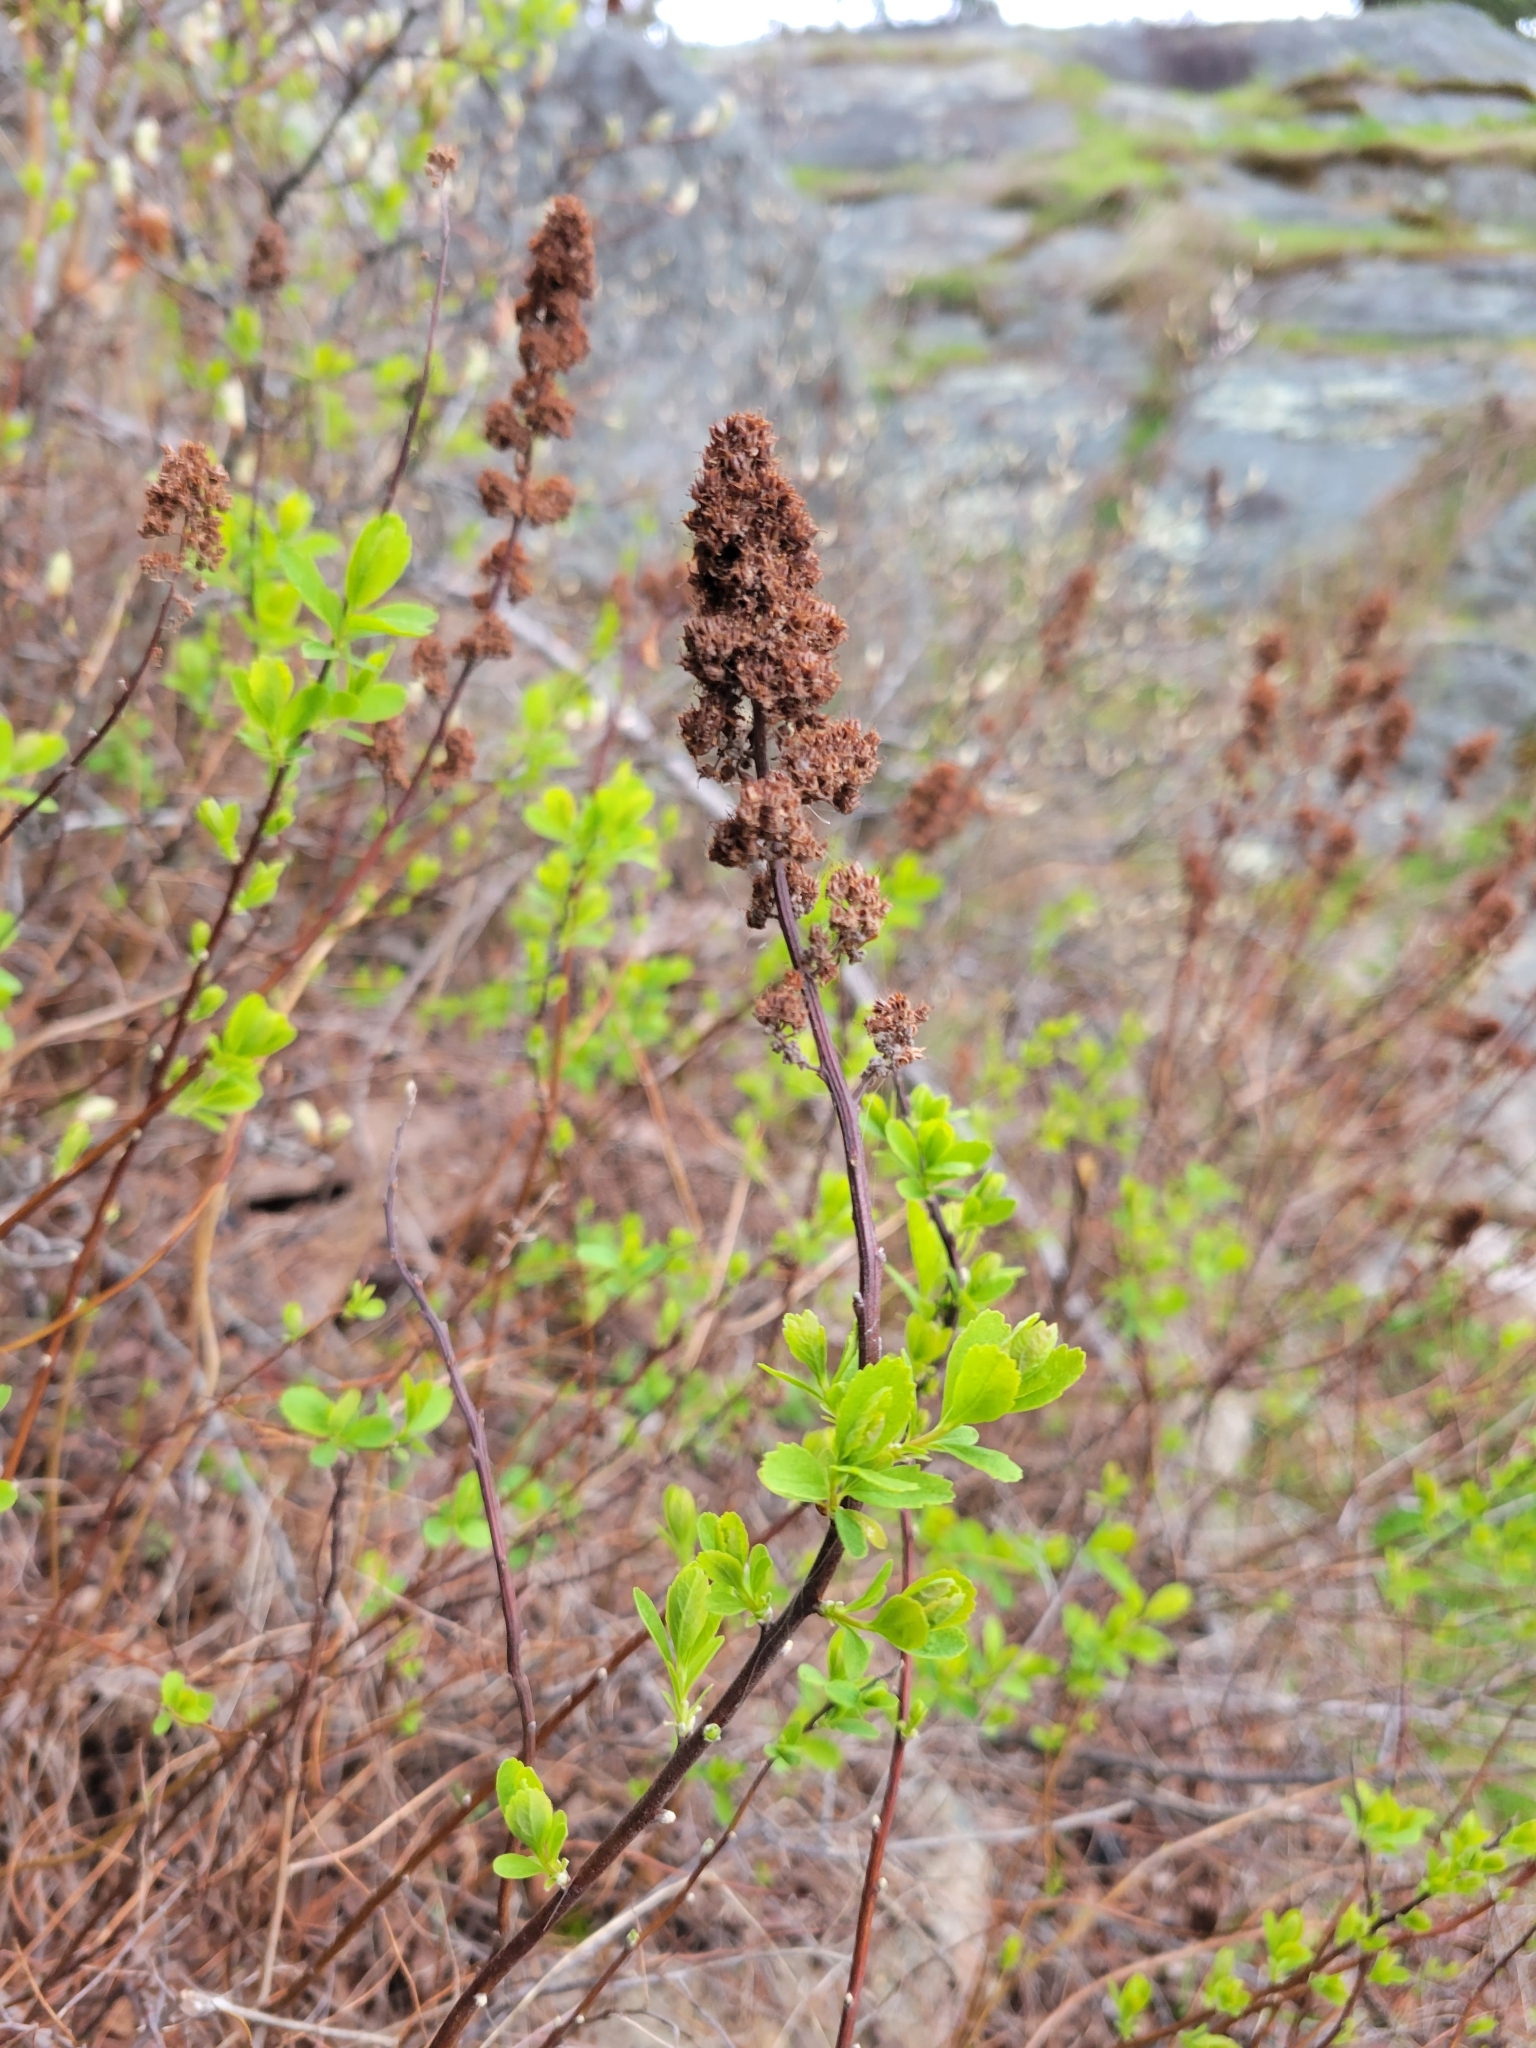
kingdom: Plantae
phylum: Tracheophyta
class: Magnoliopsida
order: Rosales
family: Rosaceae
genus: Spiraea
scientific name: Spiraea douglasii
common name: Steeplebush
